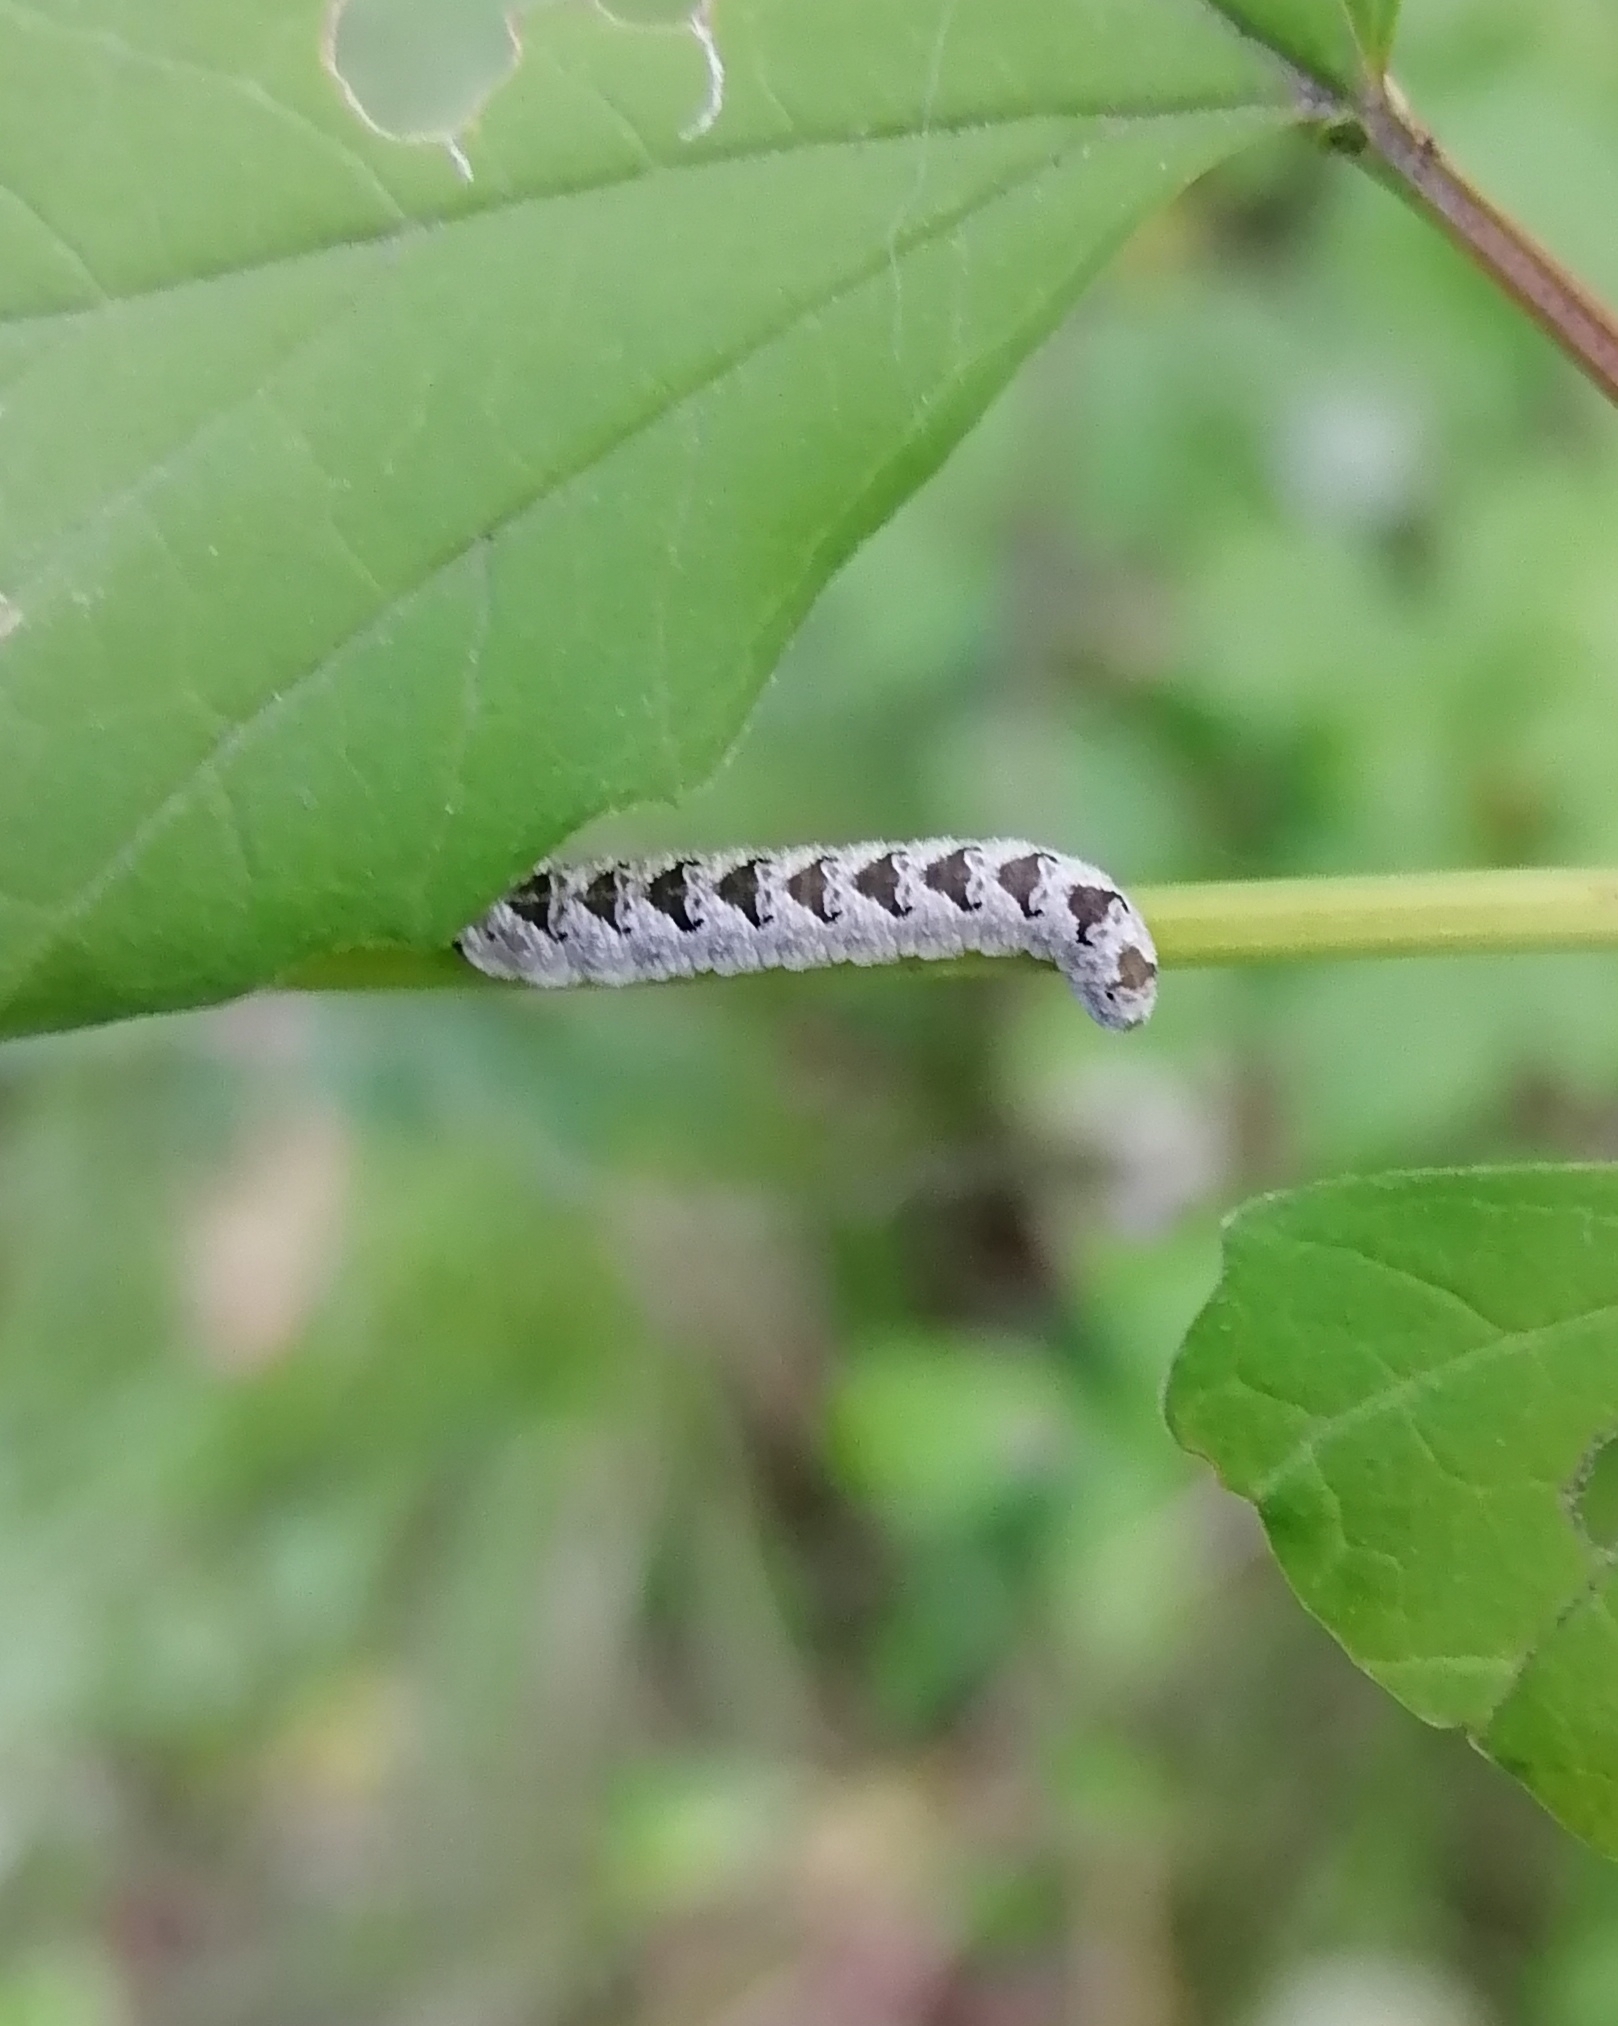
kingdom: Animalia
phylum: Arthropoda
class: Insecta
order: Hymenoptera
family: Tenthredinidae
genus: Tenthredo
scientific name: Tenthredo vespa
